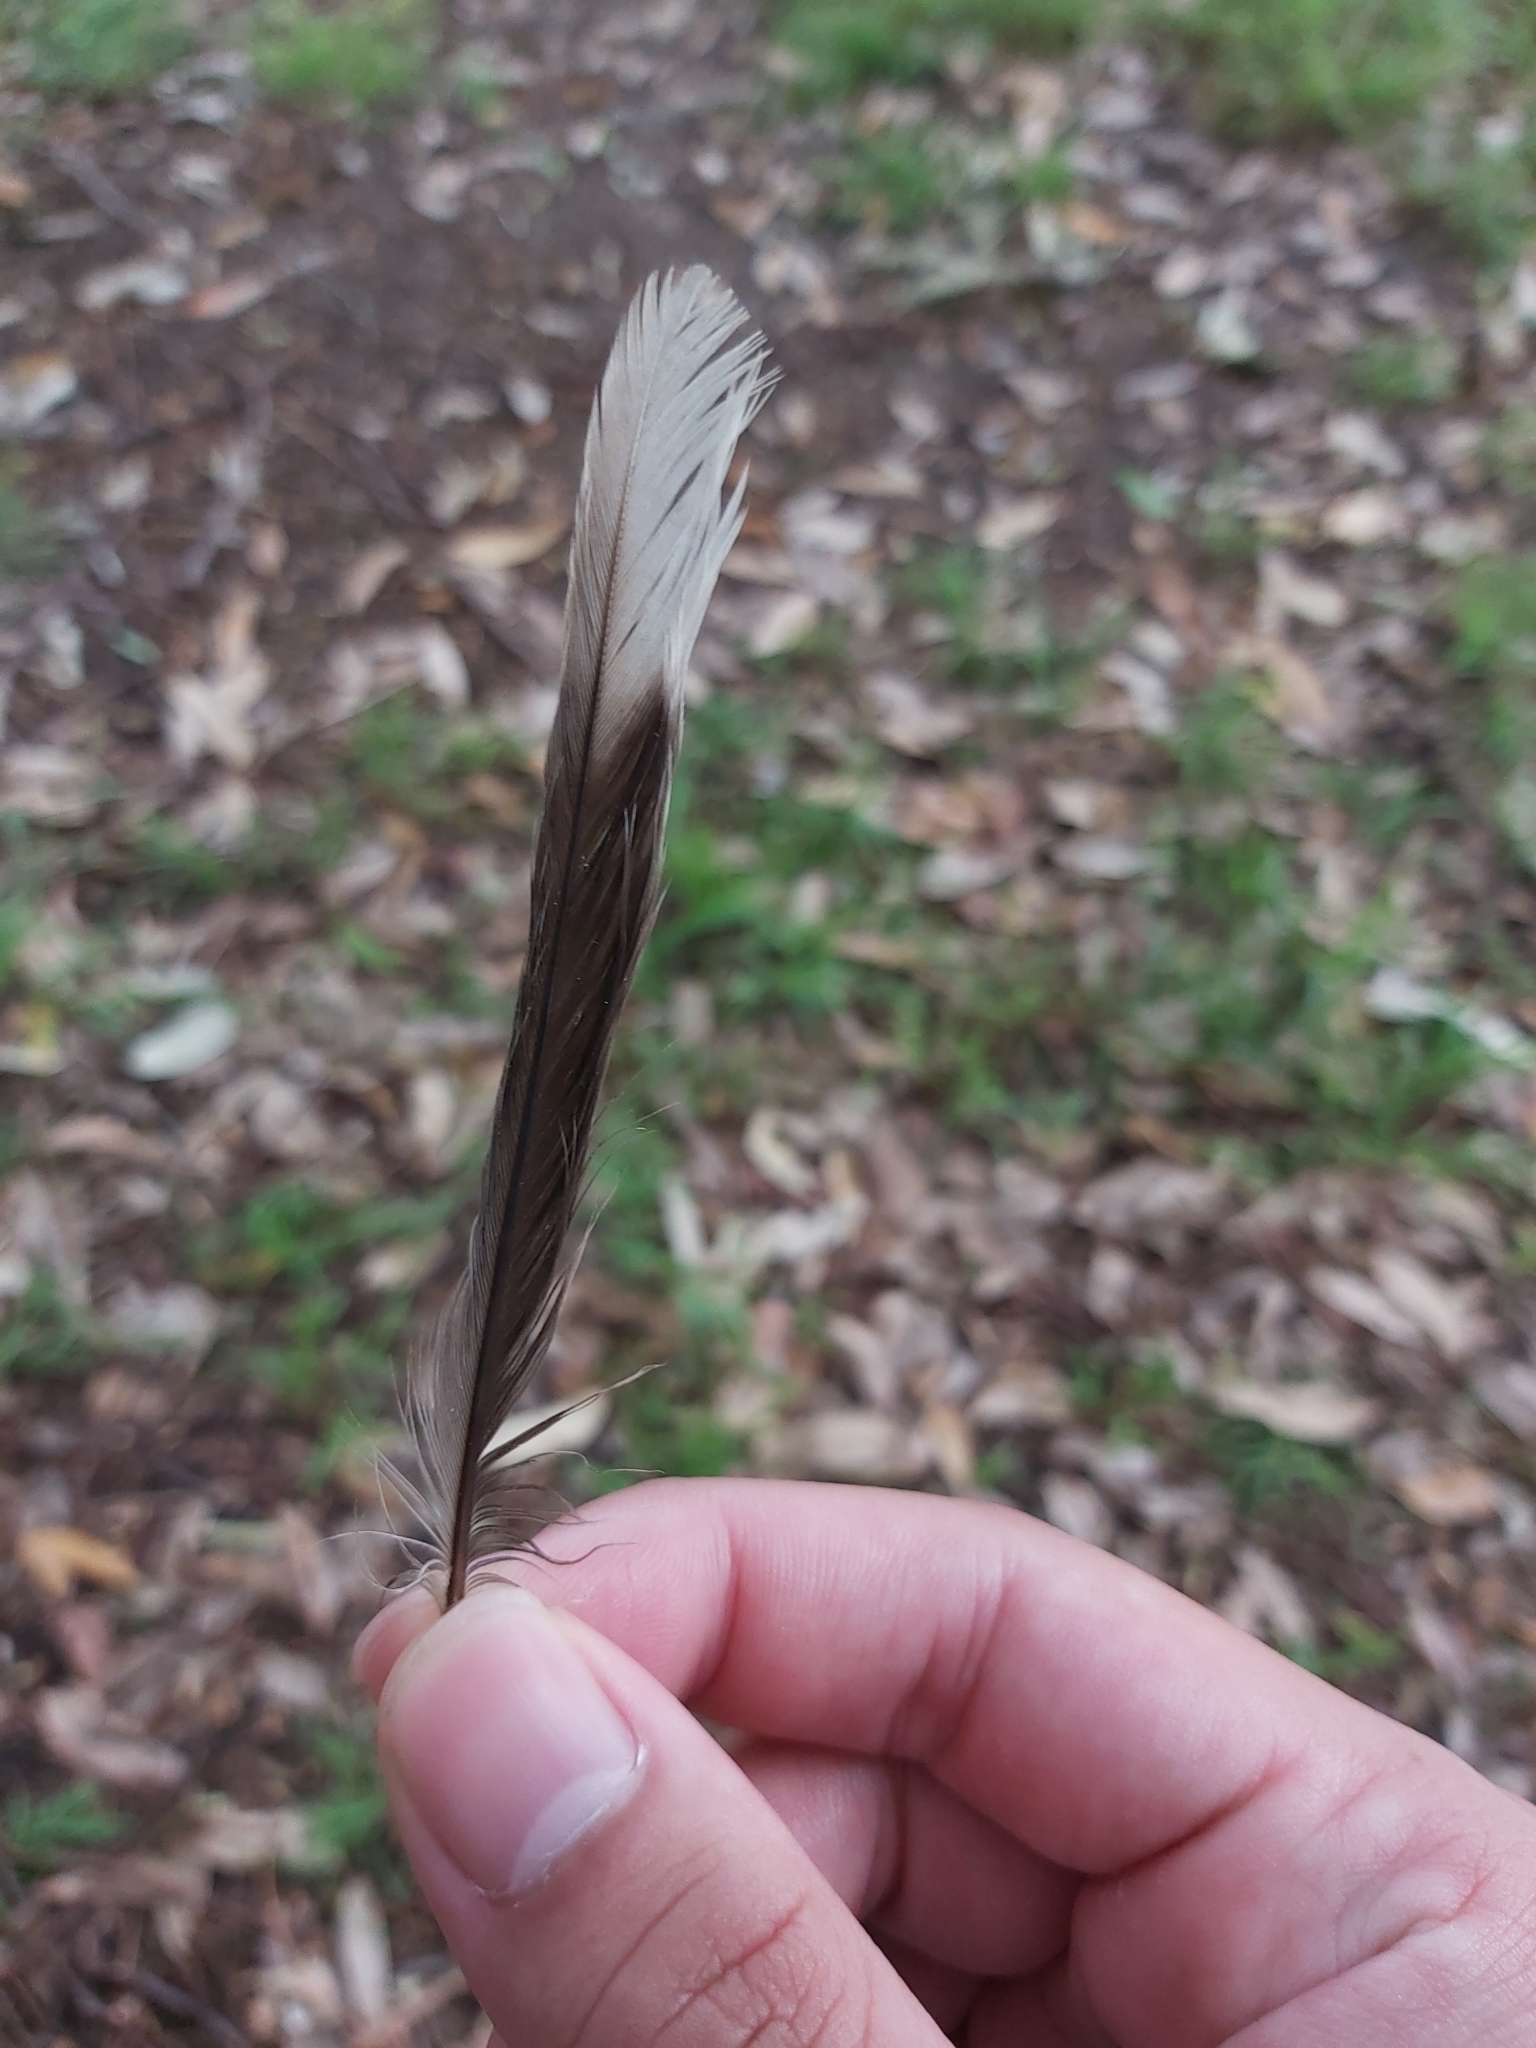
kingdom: Animalia
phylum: Chordata
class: Aves
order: Passeriformes
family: Meliphagidae
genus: Manorina
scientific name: Manorina melanocephala
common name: Noisy miner
